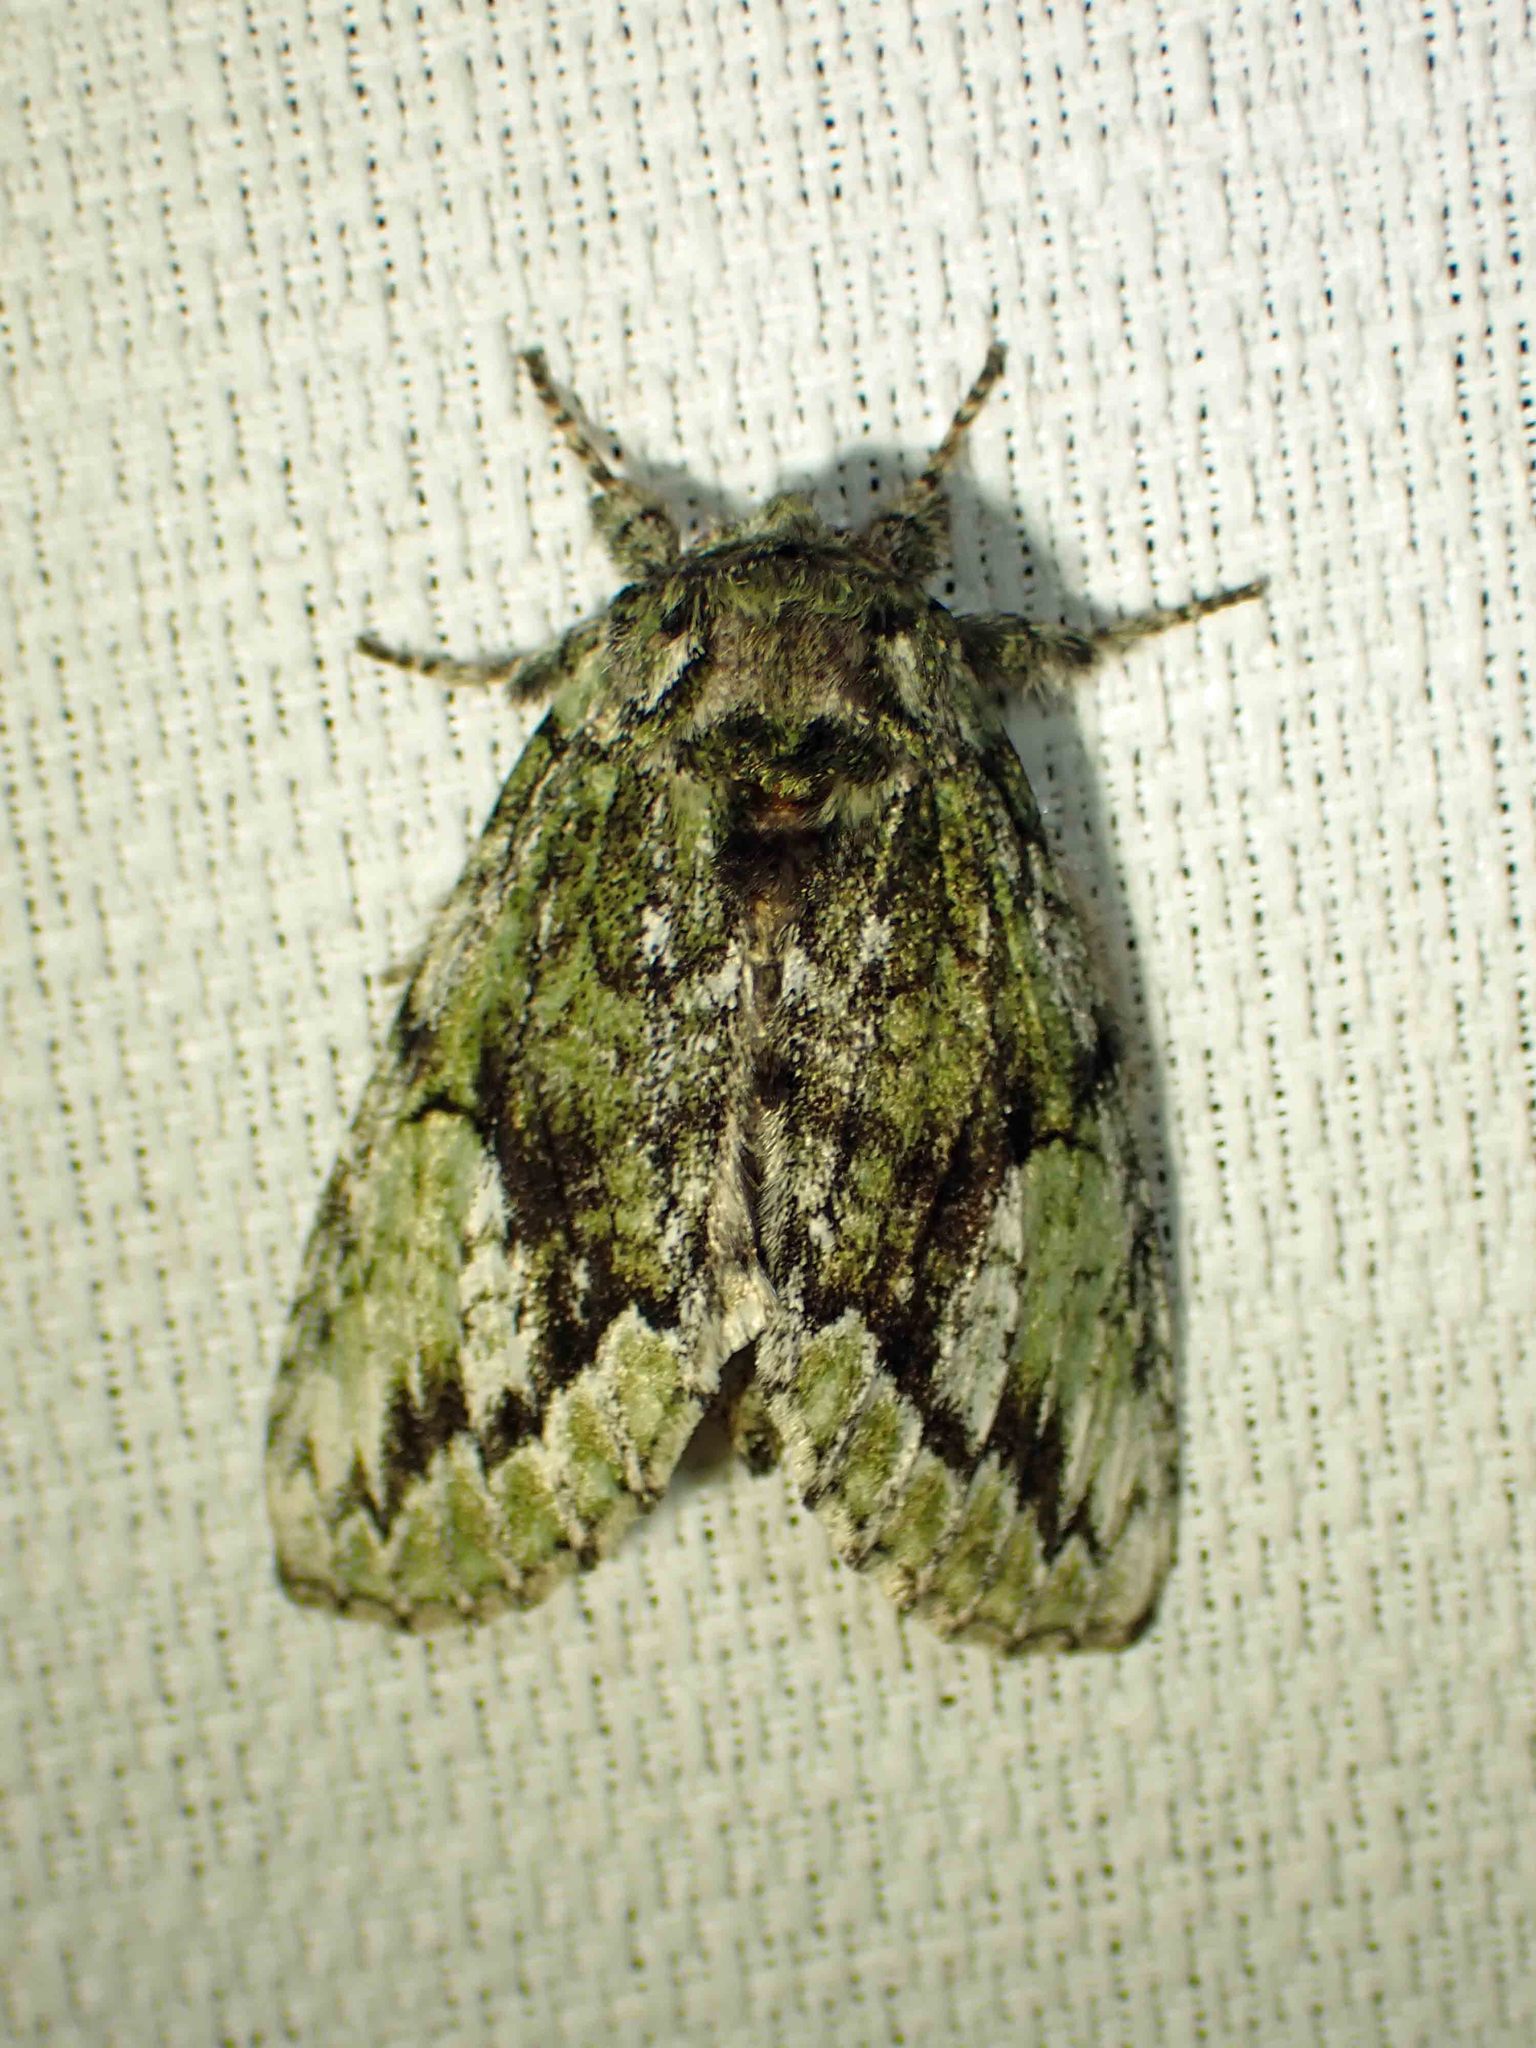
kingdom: Animalia
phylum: Arthropoda
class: Insecta
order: Lepidoptera
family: Notodontidae
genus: Heterocampa
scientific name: Heterocampa
